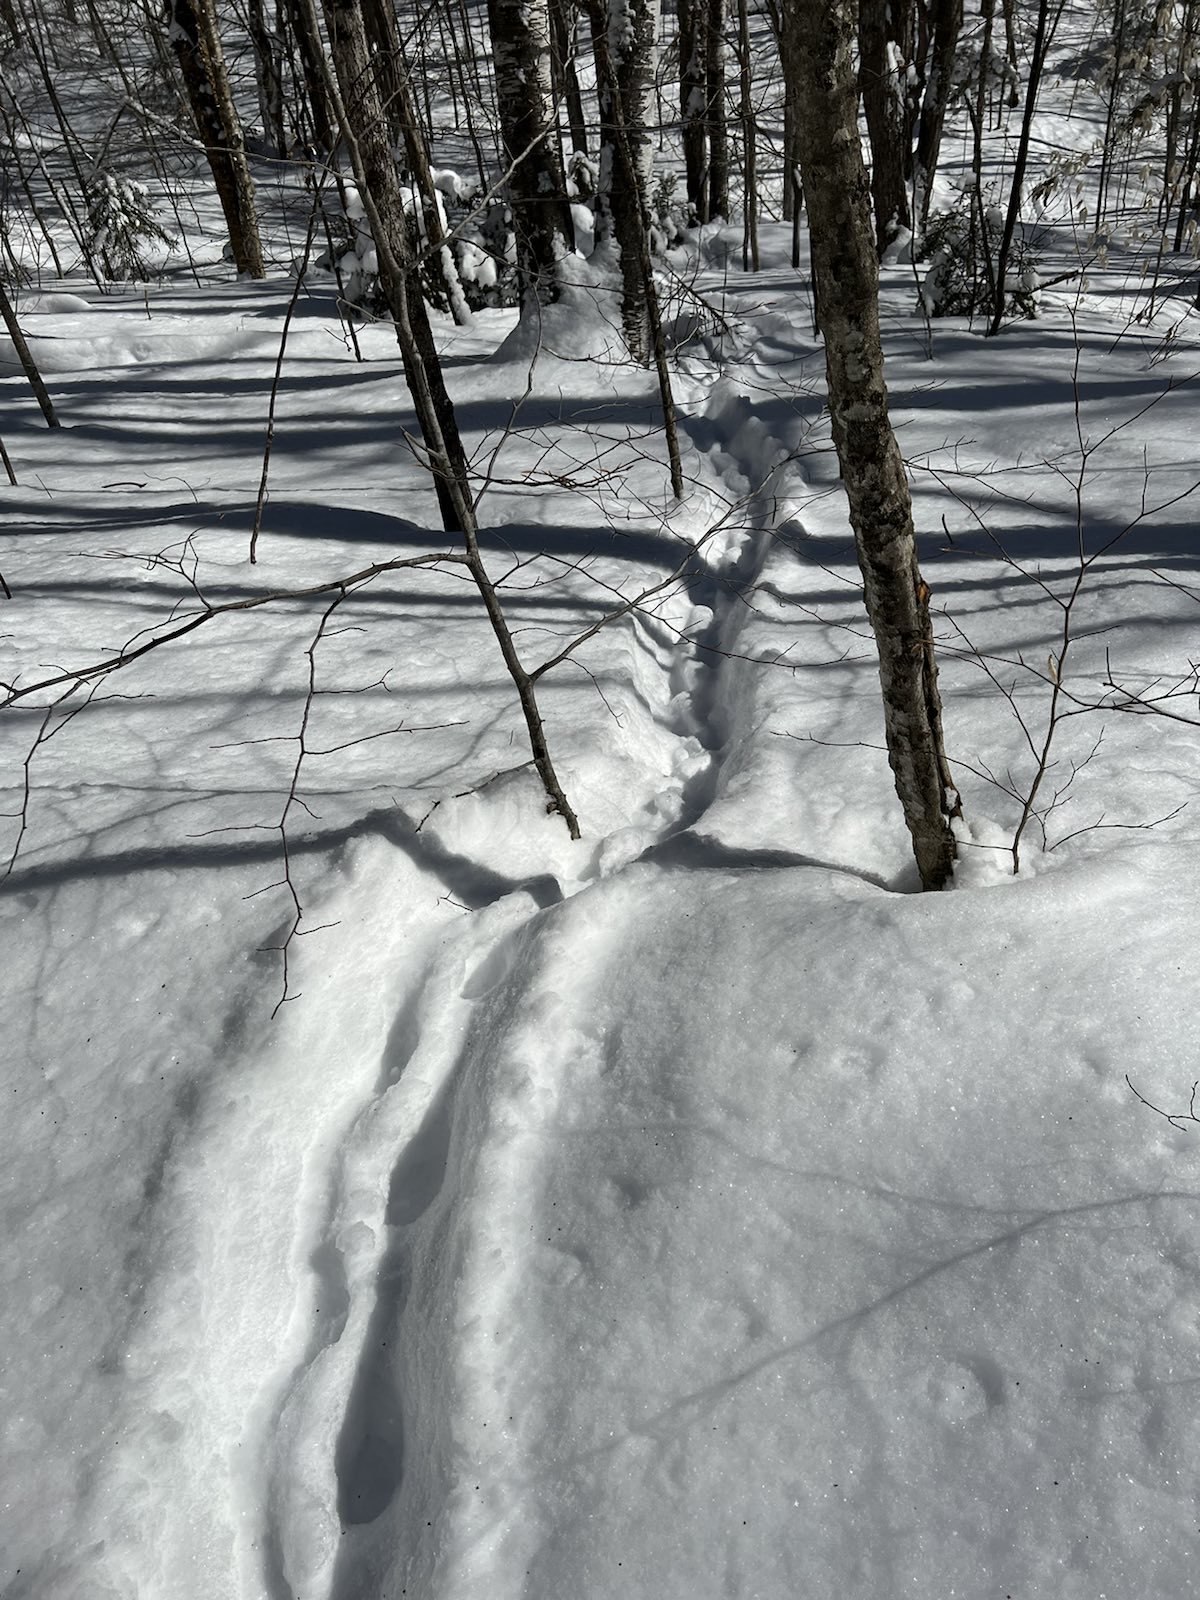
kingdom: Animalia
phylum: Chordata
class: Mammalia
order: Rodentia
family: Erethizontidae
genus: Erethizon
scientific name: Erethizon dorsatus
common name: North american porcupine
